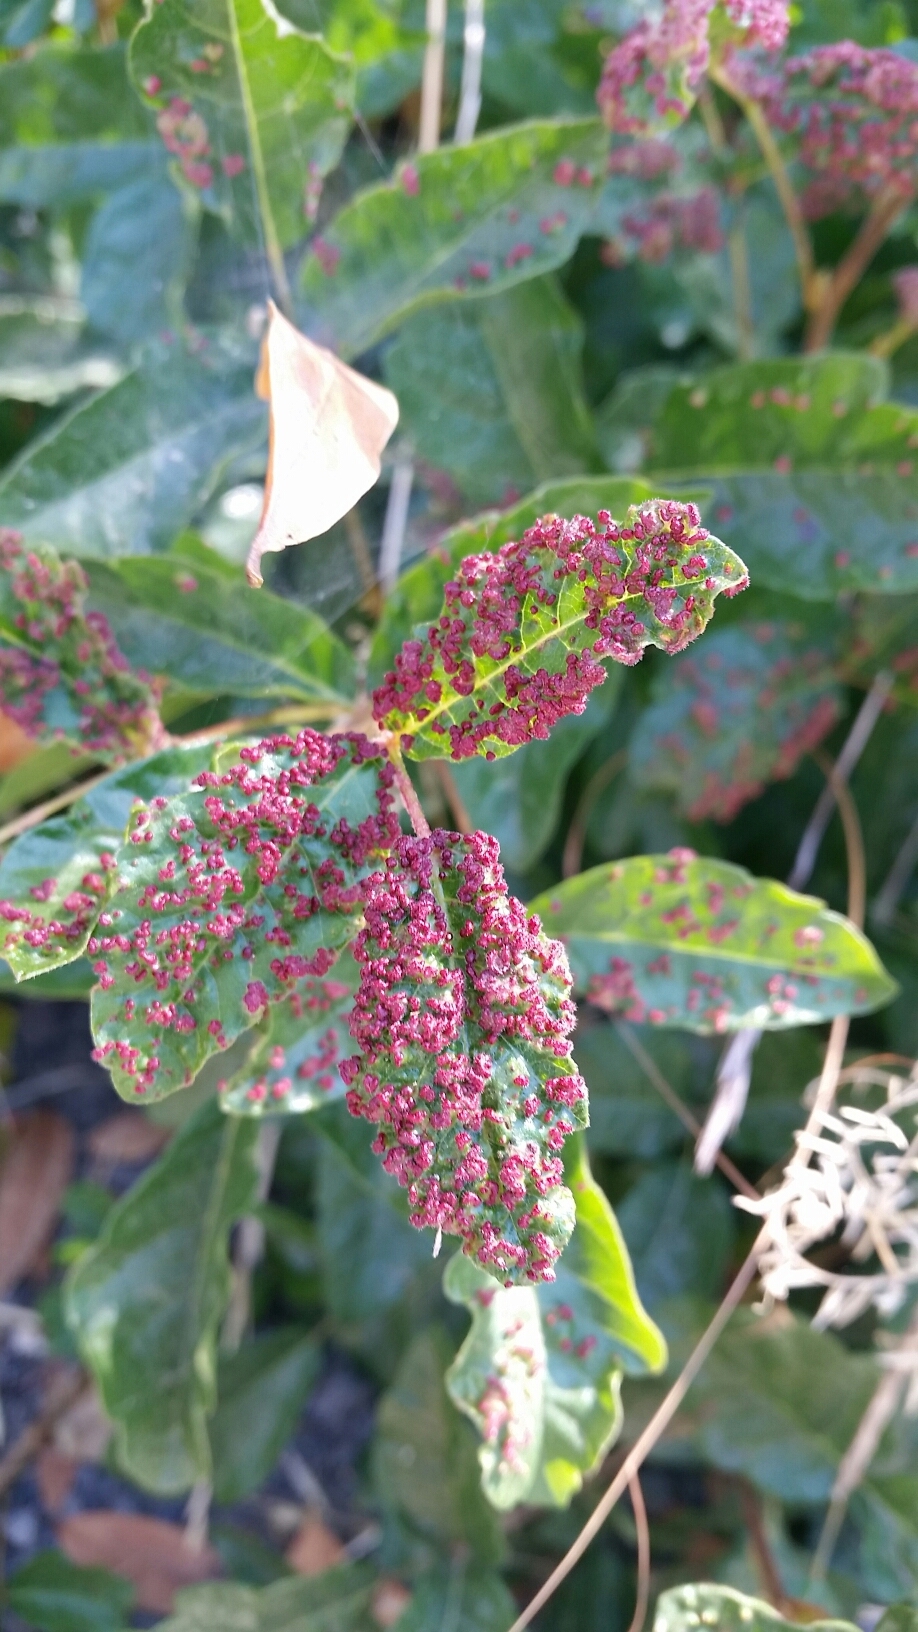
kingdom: Animalia
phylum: Arthropoda
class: Arachnida
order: Trombidiformes
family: Eriophyidae
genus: Aculops
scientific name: Aculops
